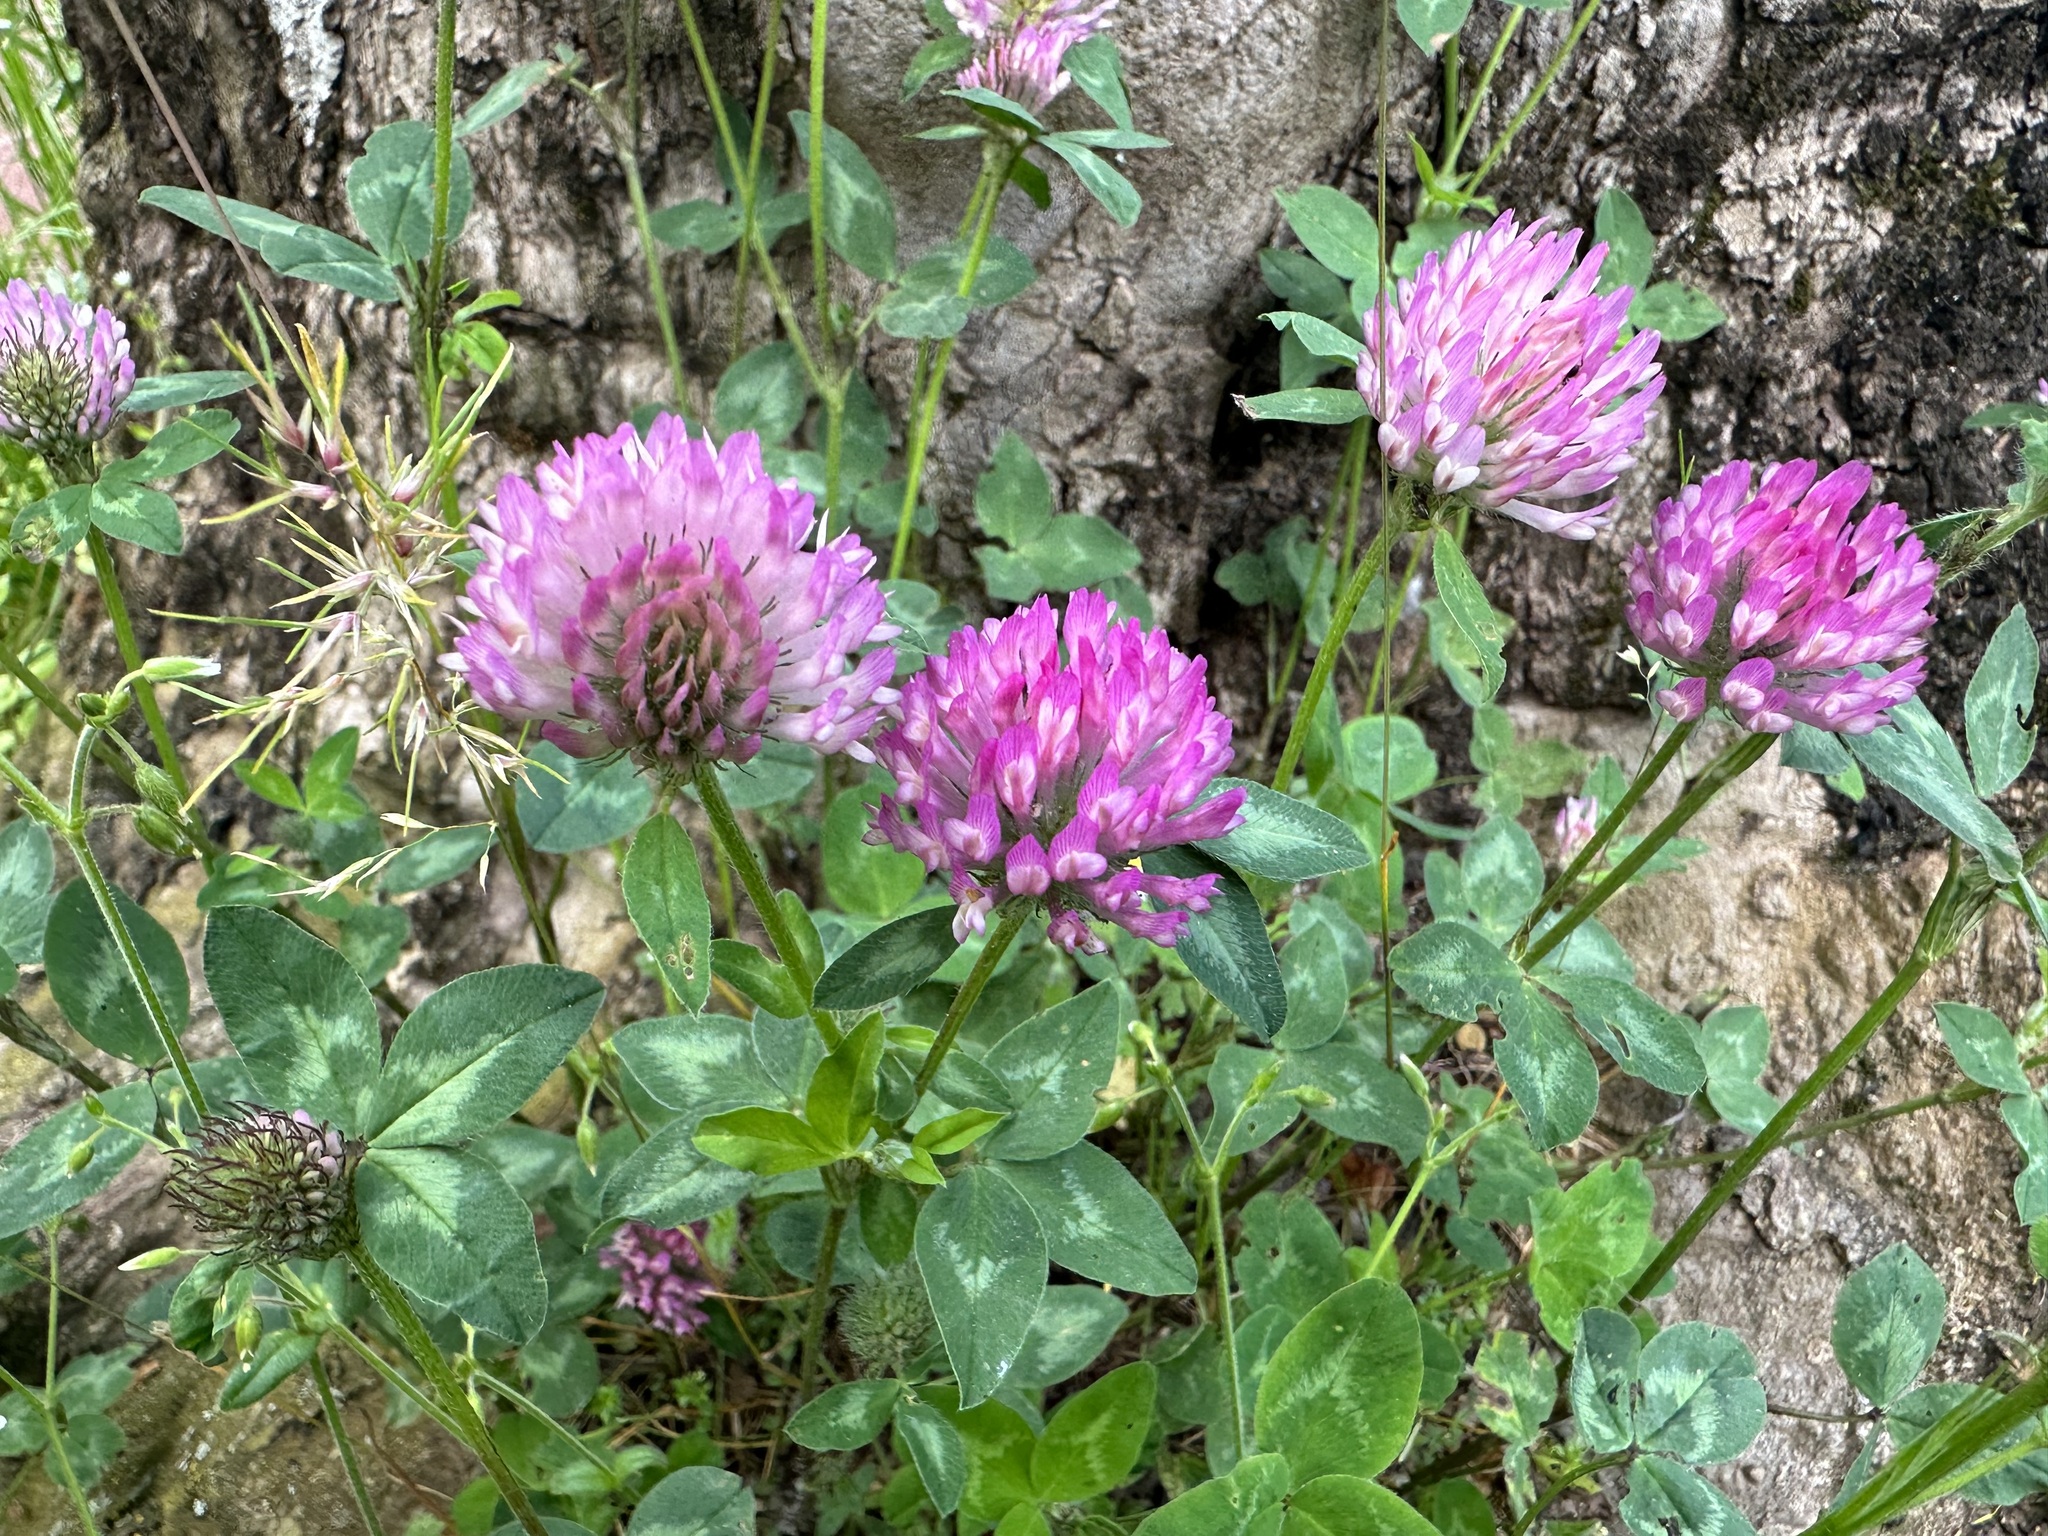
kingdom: Plantae
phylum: Tracheophyta
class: Magnoliopsida
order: Fabales
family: Fabaceae
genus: Trifolium
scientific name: Trifolium pratense
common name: Red clover
